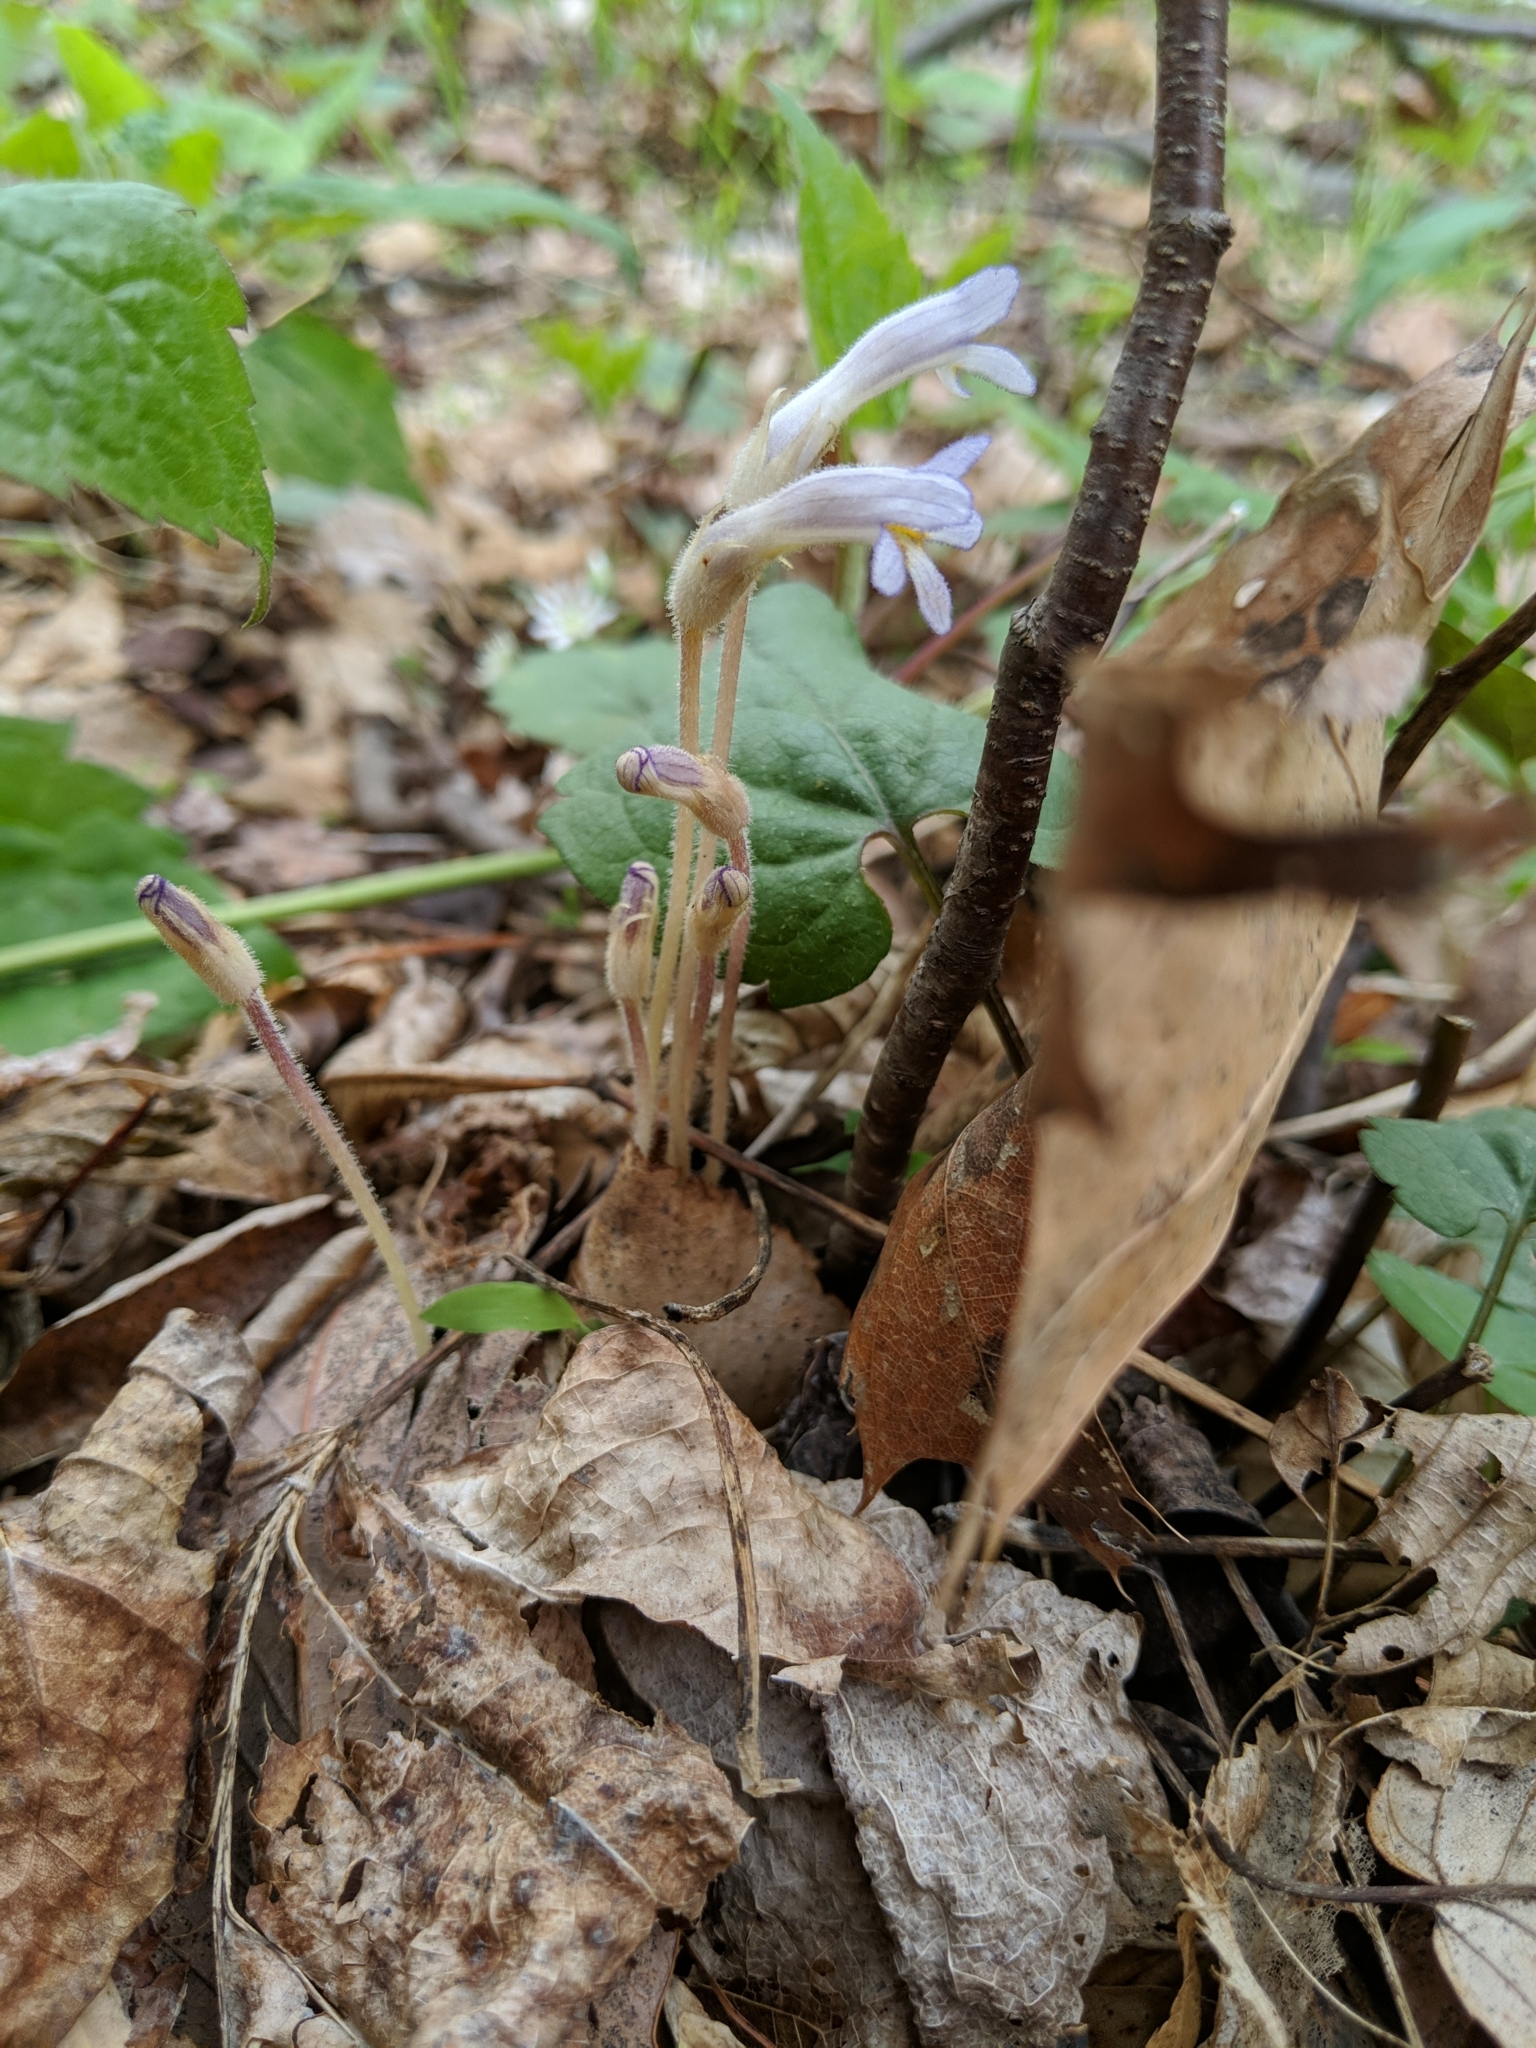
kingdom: Plantae
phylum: Tracheophyta
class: Magnoliopsida
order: Lamiales
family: Orobanchaceae
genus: Aphyllon
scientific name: Aphyllon uniflorum
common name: One-flowered broomrape
